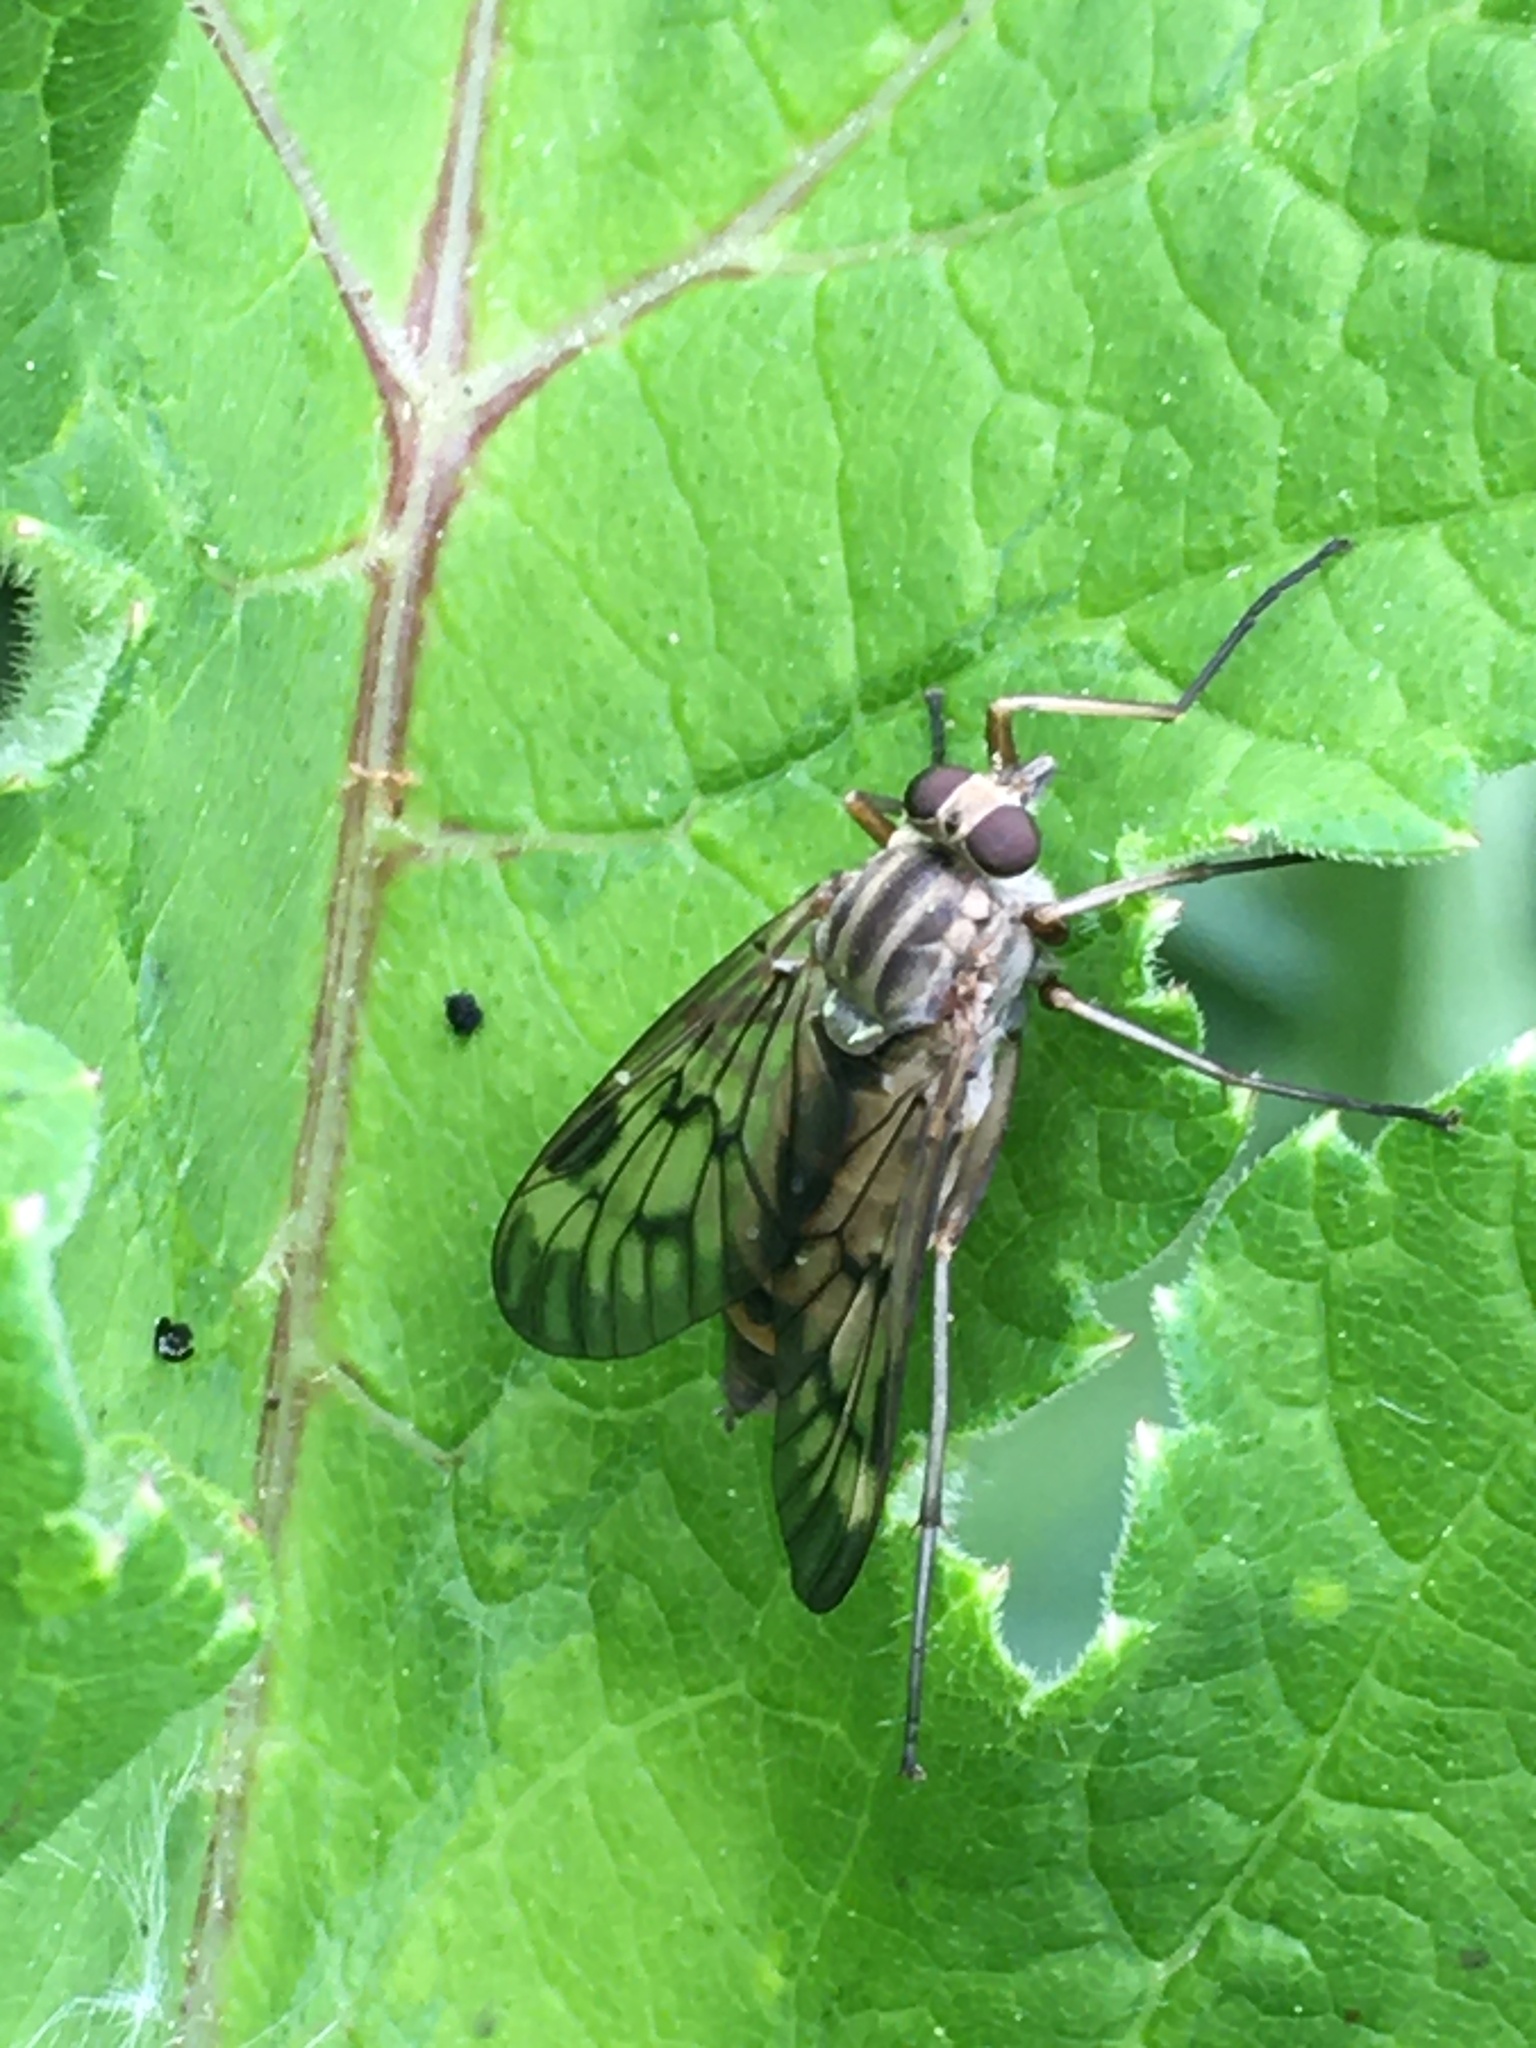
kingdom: Animalia
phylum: Arthropoda
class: Insecta
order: Diptera
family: Rhagionidae
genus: Rhagio
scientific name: Rhagio scolopacea
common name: Downlooker snipefly
